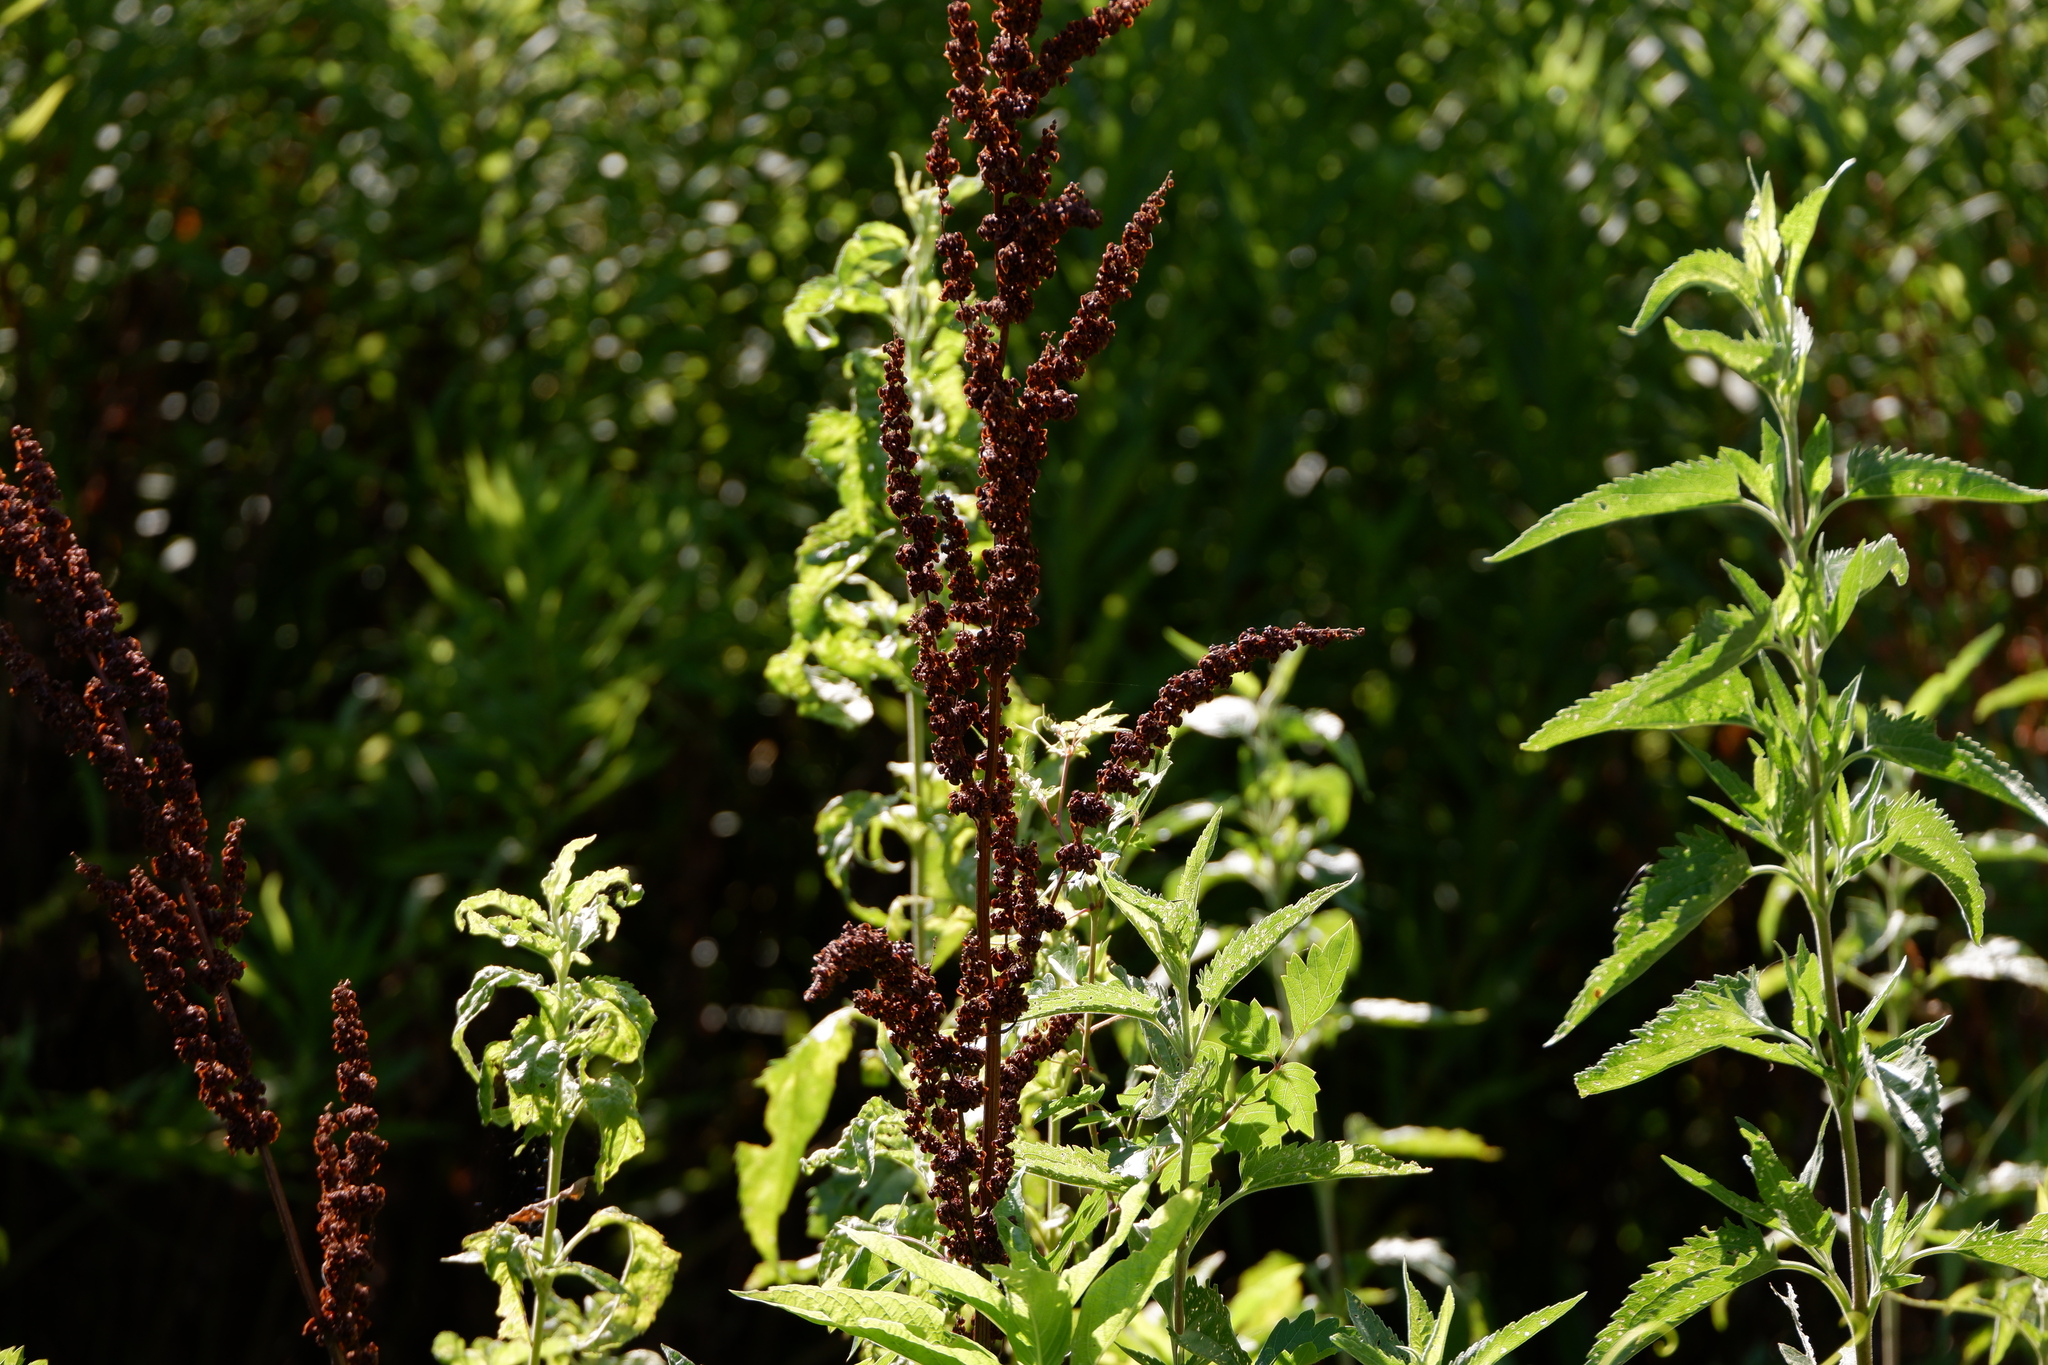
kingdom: Plantae
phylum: Tracheophyta
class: Magnoliopsida
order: Caryophyllales
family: Polygonaceae
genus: Rumex
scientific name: Rumex crispus
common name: Curled dock
